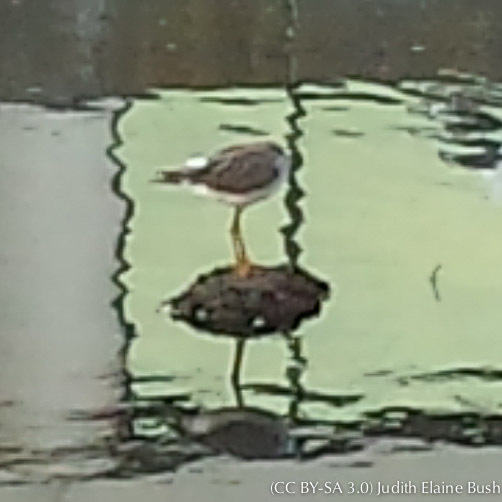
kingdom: Animalia
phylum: Chordata
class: Aves
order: Charadriiformes
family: Scolopacidae
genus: Tringa
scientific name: Tringa melanoleuca
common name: Greater yellowlegs
